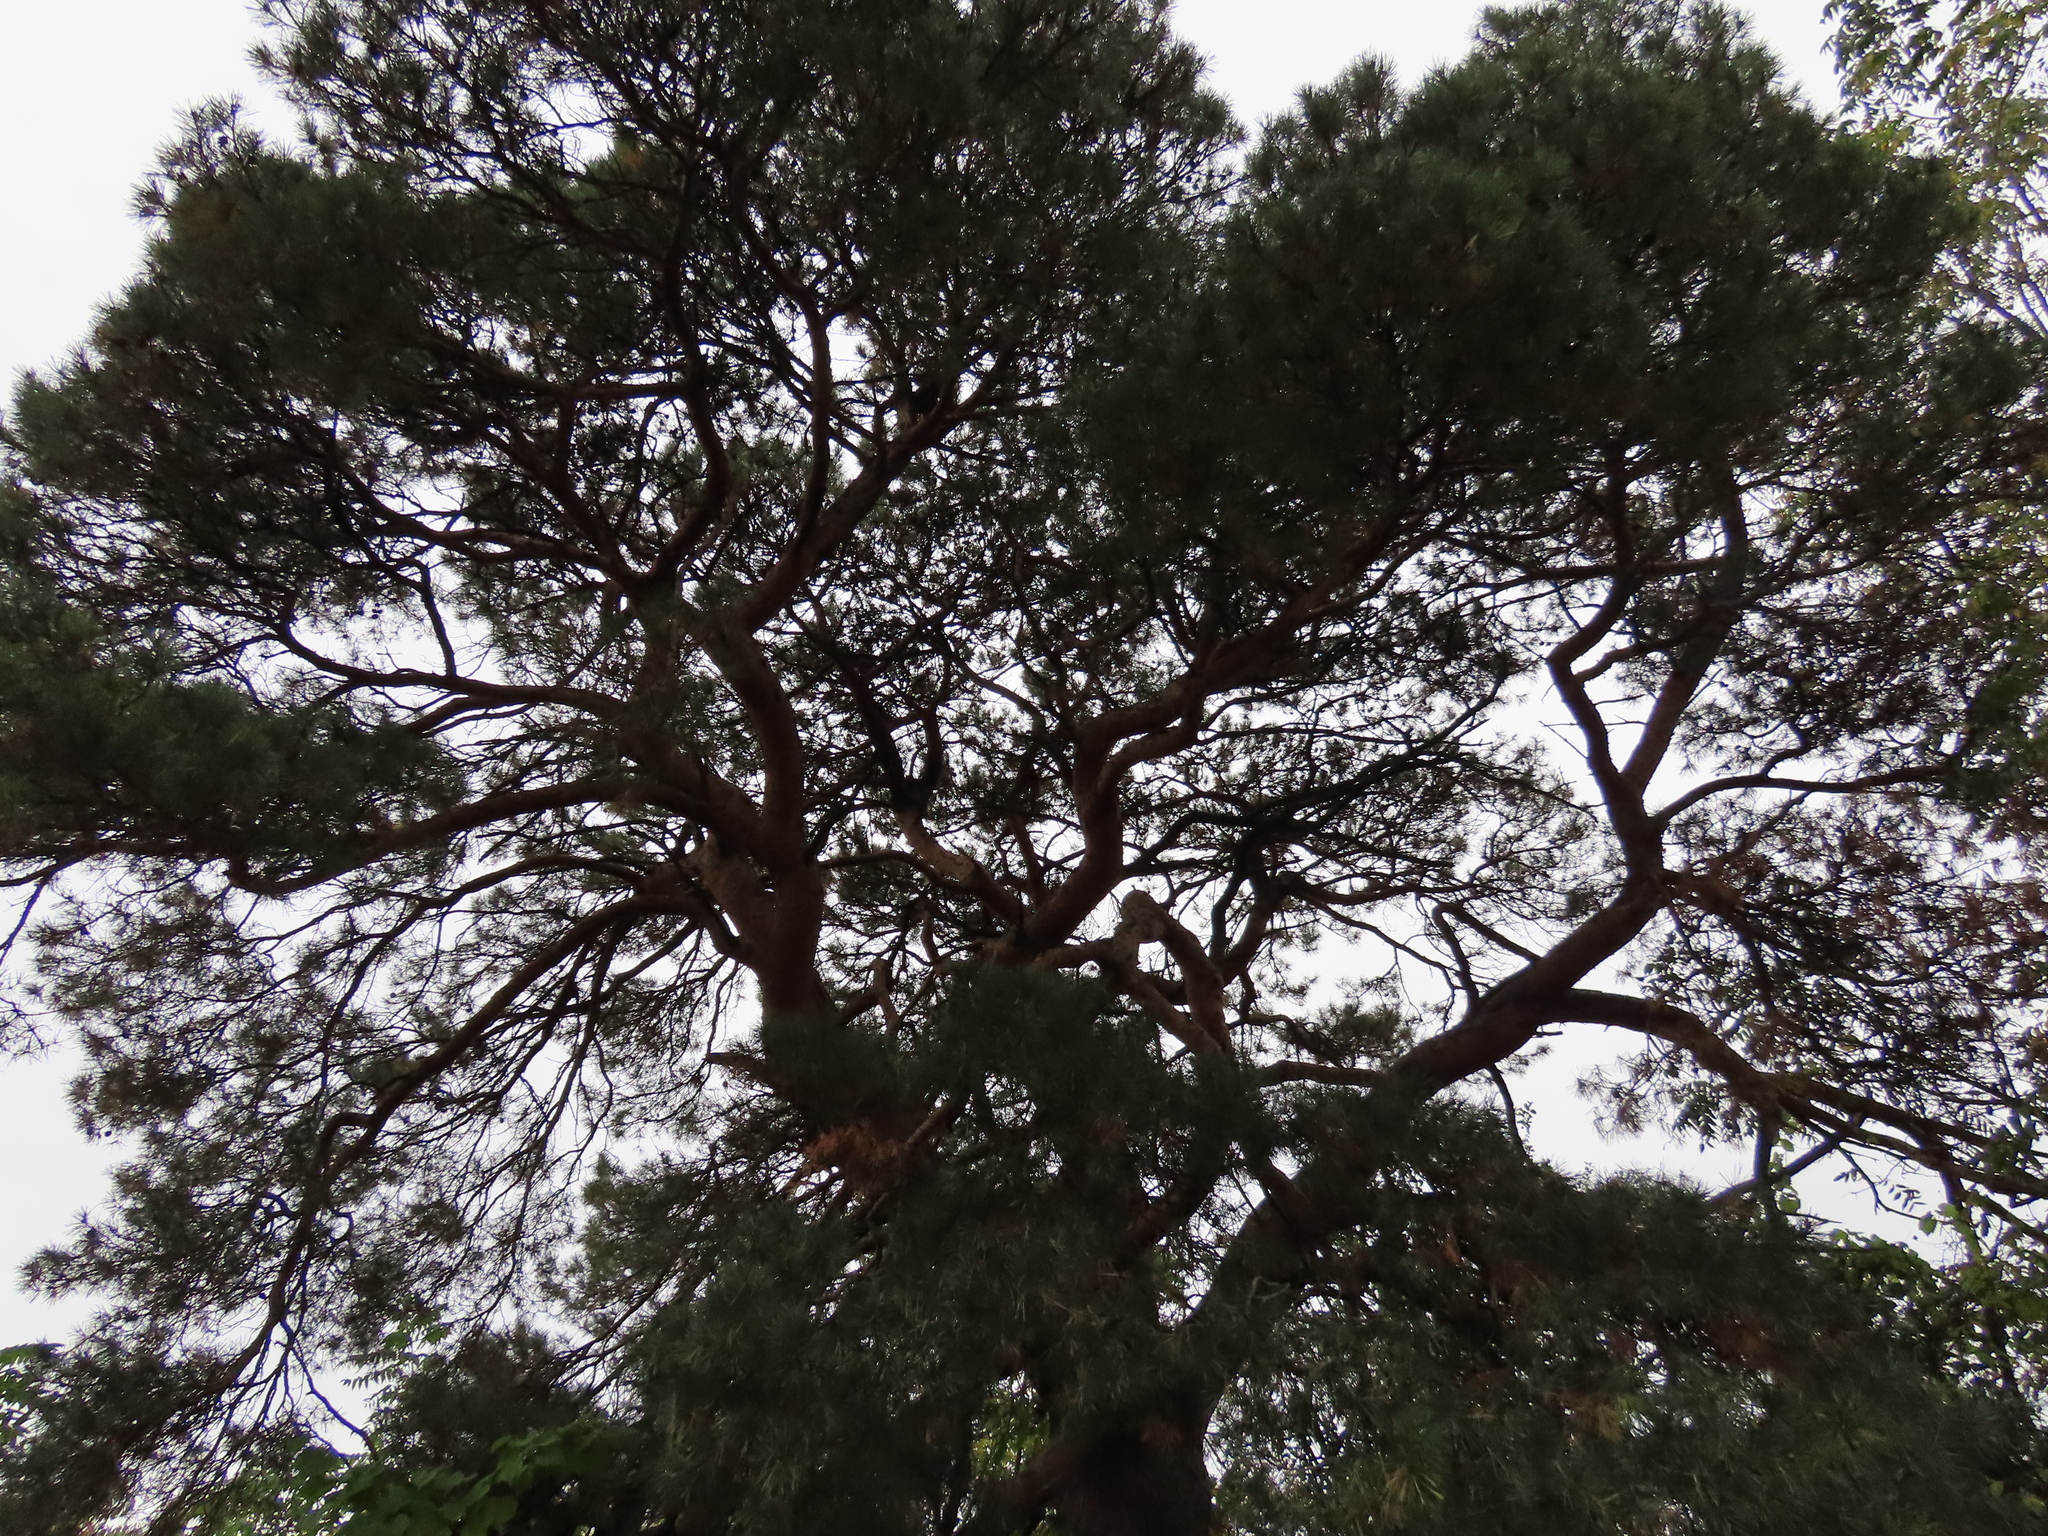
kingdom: Plantae
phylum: Tracheophyta
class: Pinopsida
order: Pinales
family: Pinaceae
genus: Pinus
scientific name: Pinus sylvestris
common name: Scots pine
